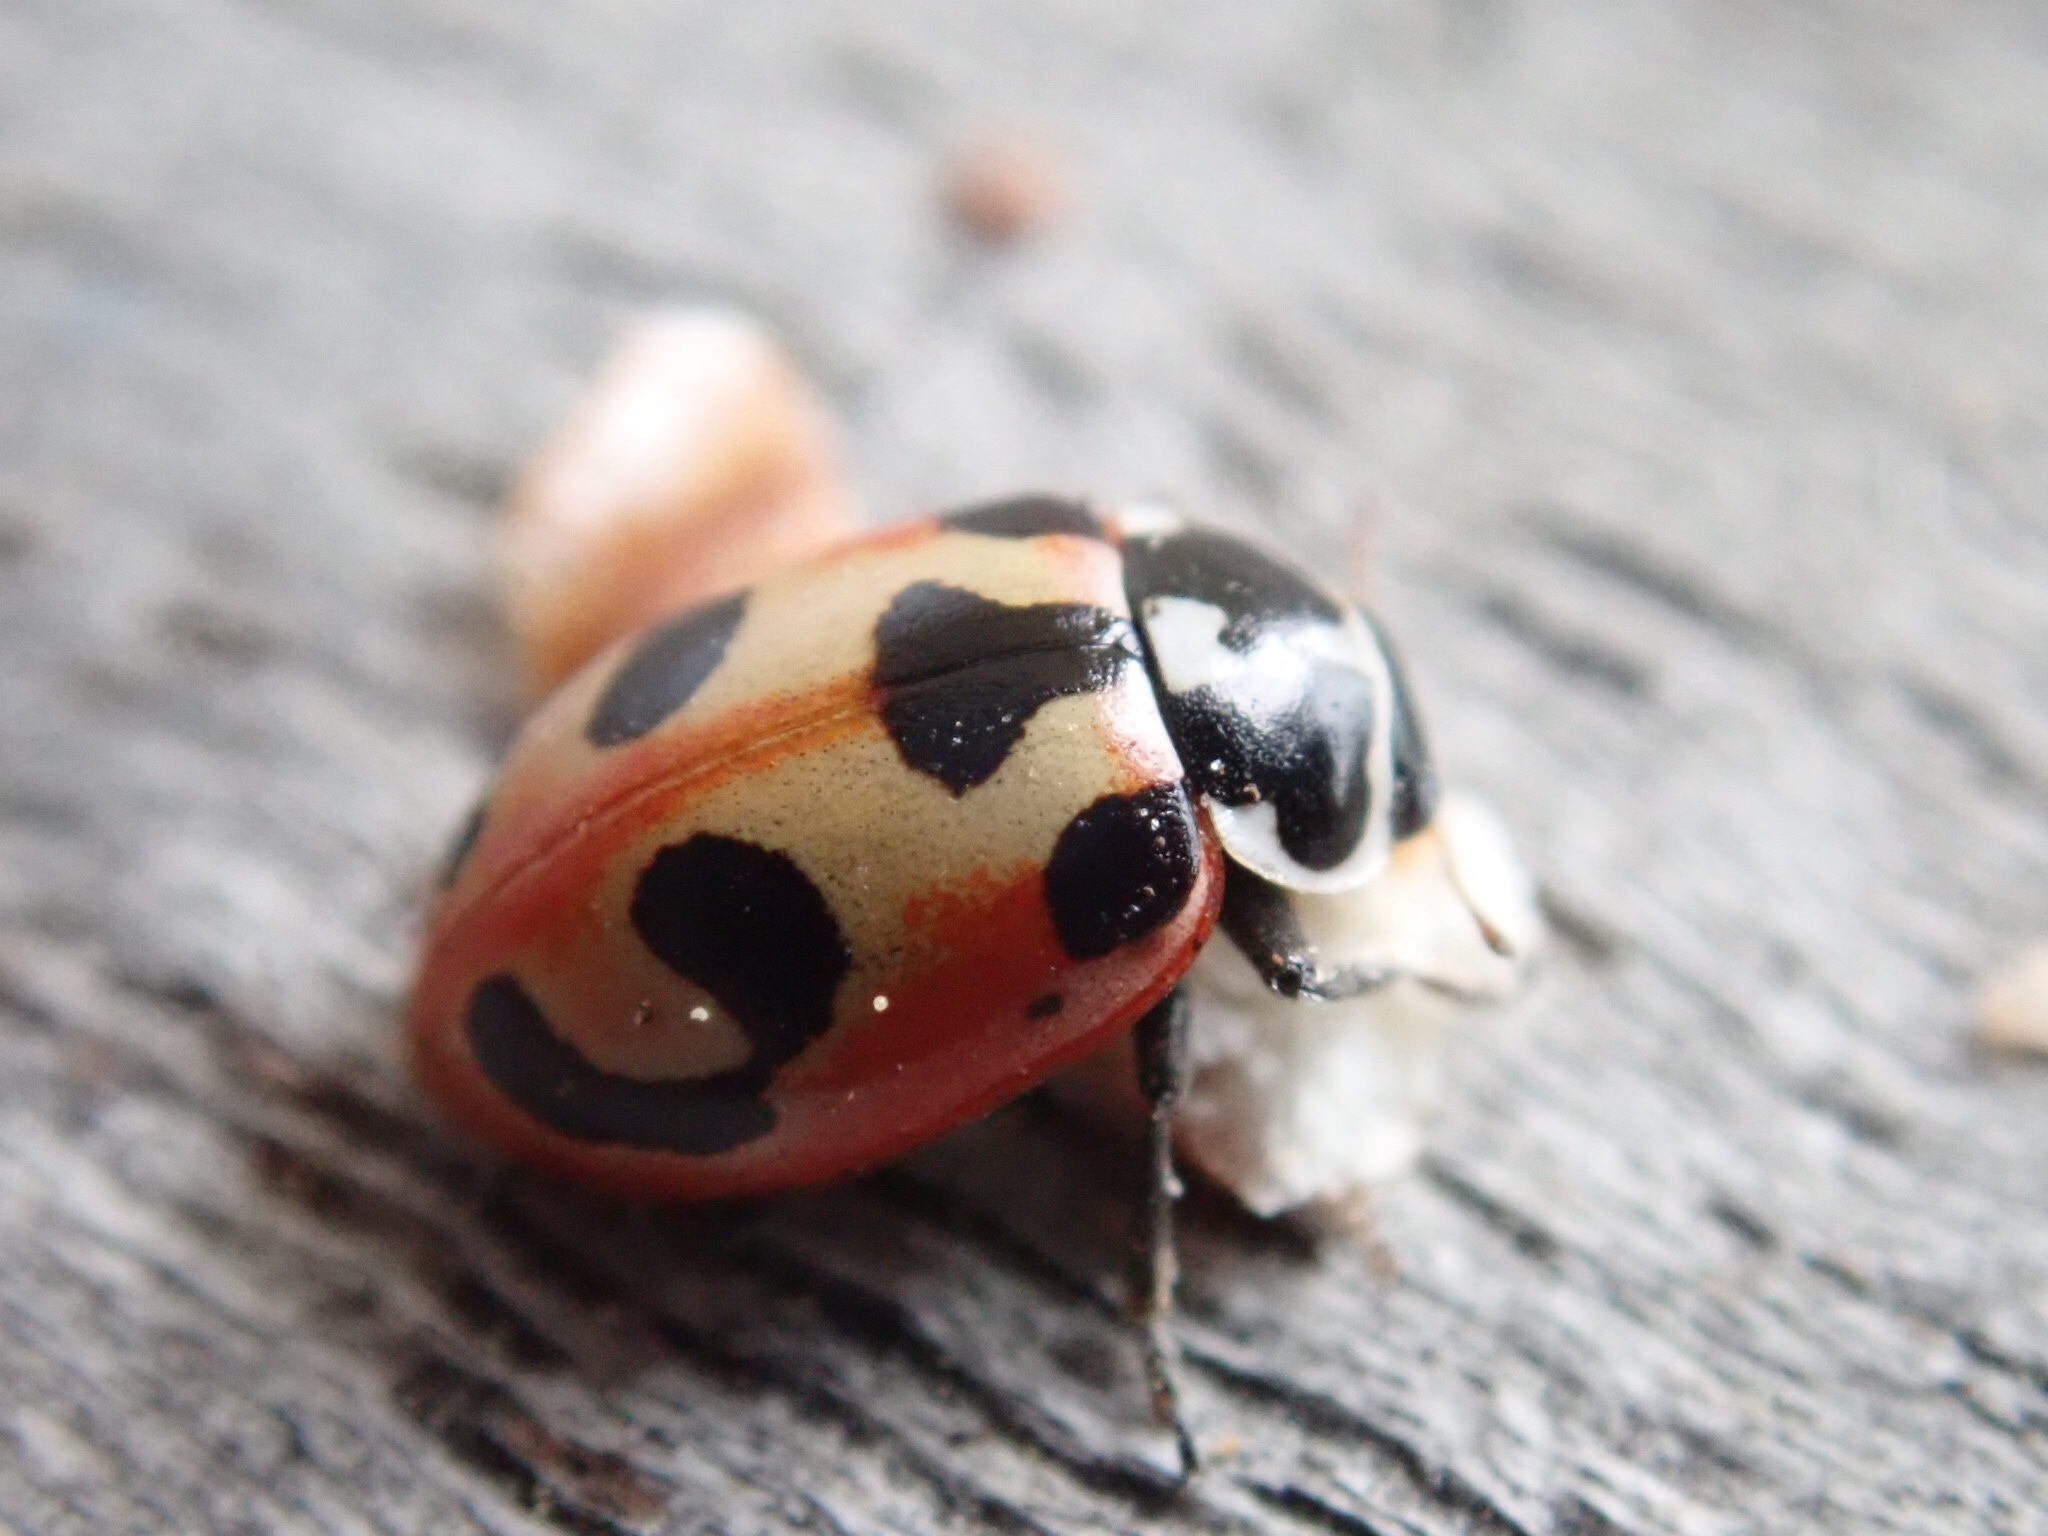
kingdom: Animalia
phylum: Arthropoda
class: Insecta
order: Coleoptera
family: Coccinellidae
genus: Hippodamia
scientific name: Hippodamia parenthesis
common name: Parenthesis lady beetle
